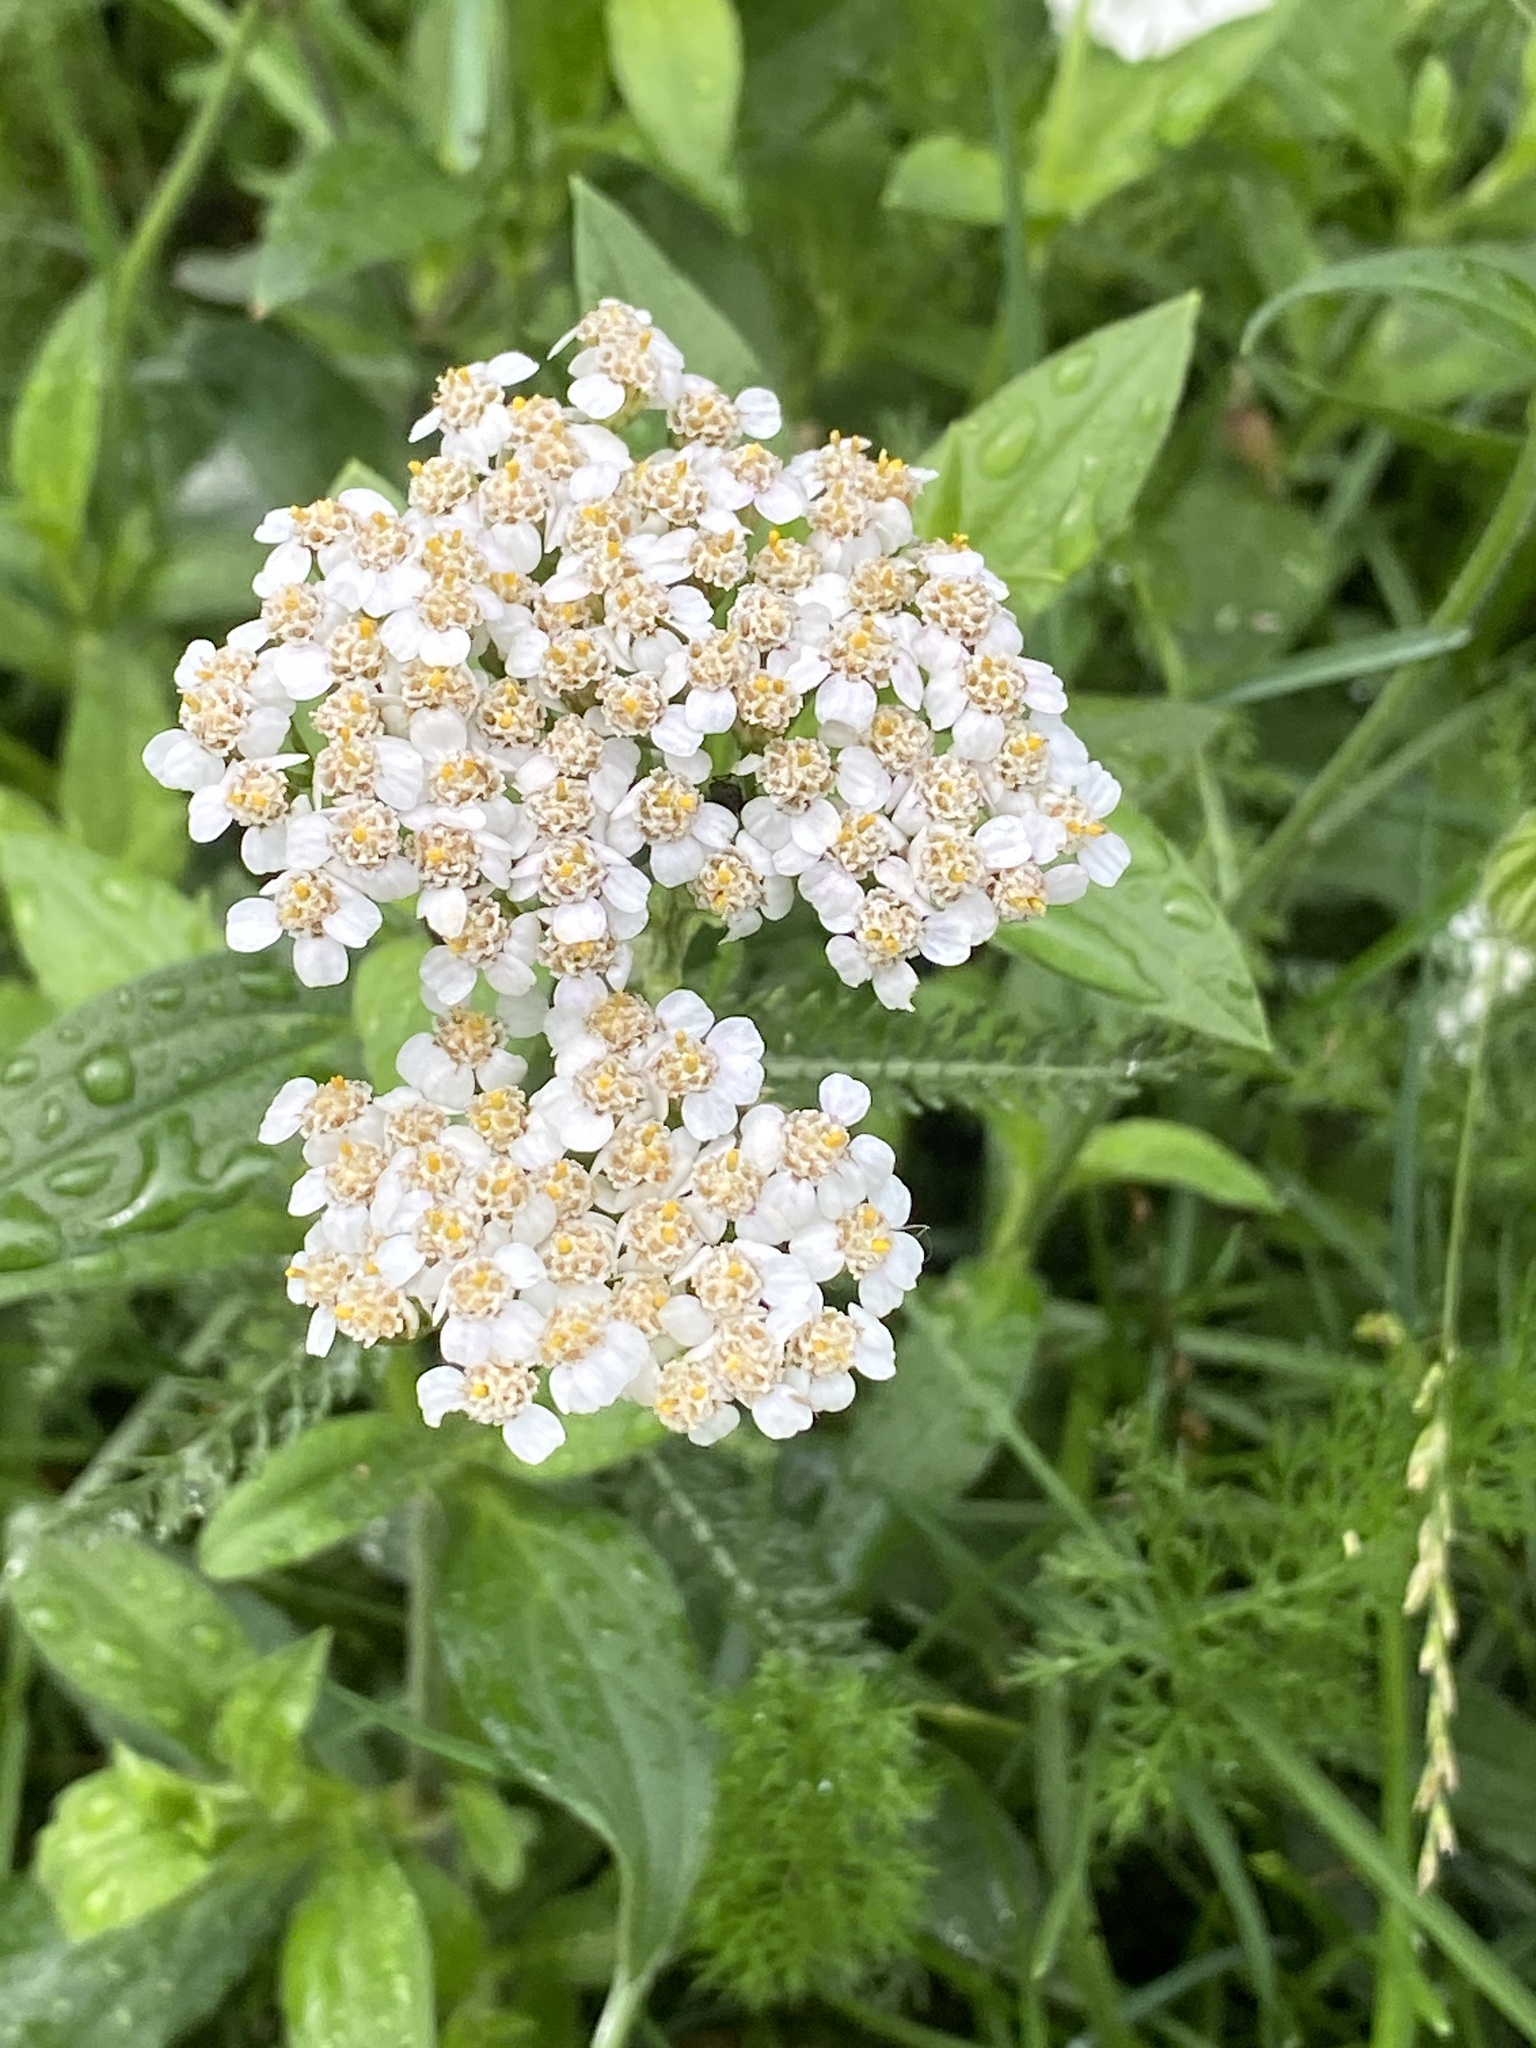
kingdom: Plantae
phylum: Tracheophyta
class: Magnoliopsida
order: Asterales
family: Asteraceae
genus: Achillea
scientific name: Achillea millefolium
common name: Yarrow
